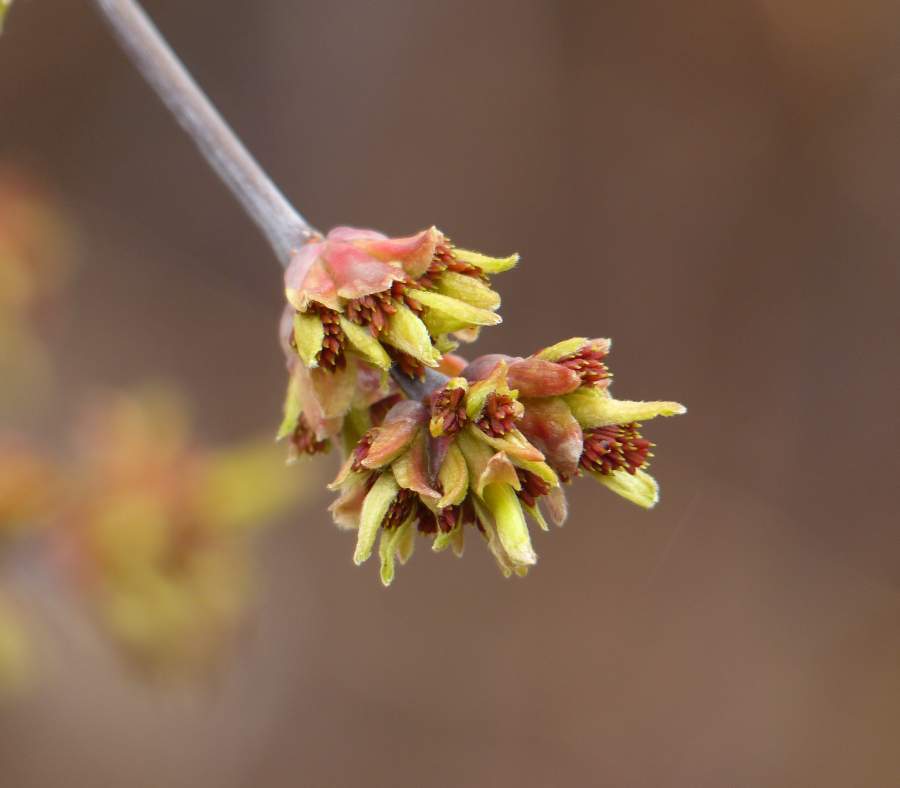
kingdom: Plantae
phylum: Tracheophyta
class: Magnoliopsida
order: Sapindales
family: Sapindaceae
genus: Acer
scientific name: Acer negundo
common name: Ashleaf maple
